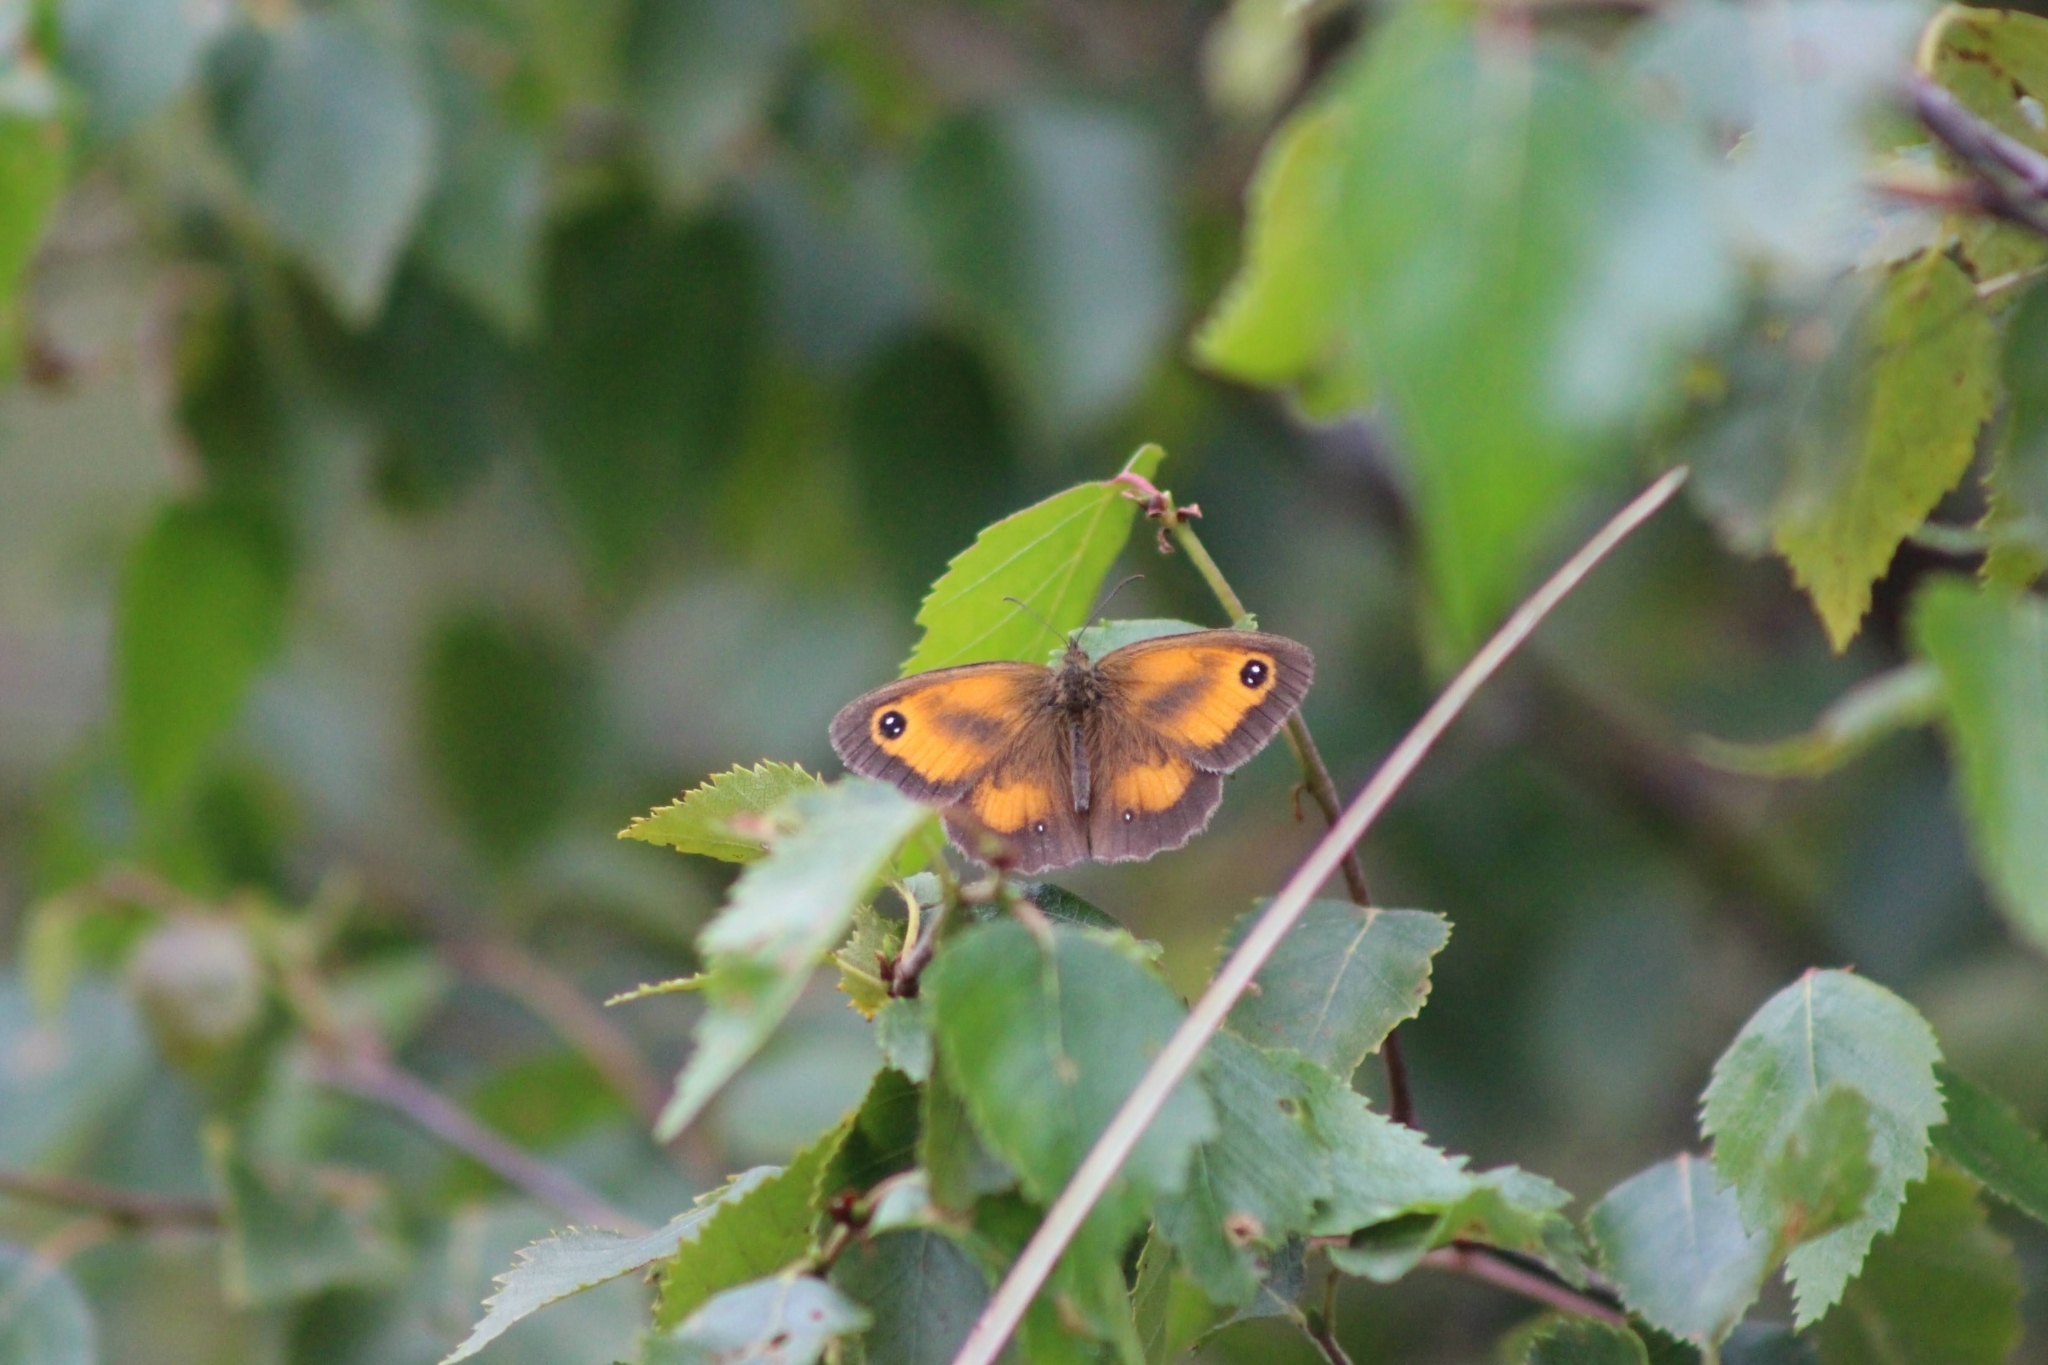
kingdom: Animalia
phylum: Arthropoda
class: Insecta
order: Lepidoptera
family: Nymphalidae
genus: Pyronia
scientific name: Pyronia tithonus
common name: Gatekeeper
